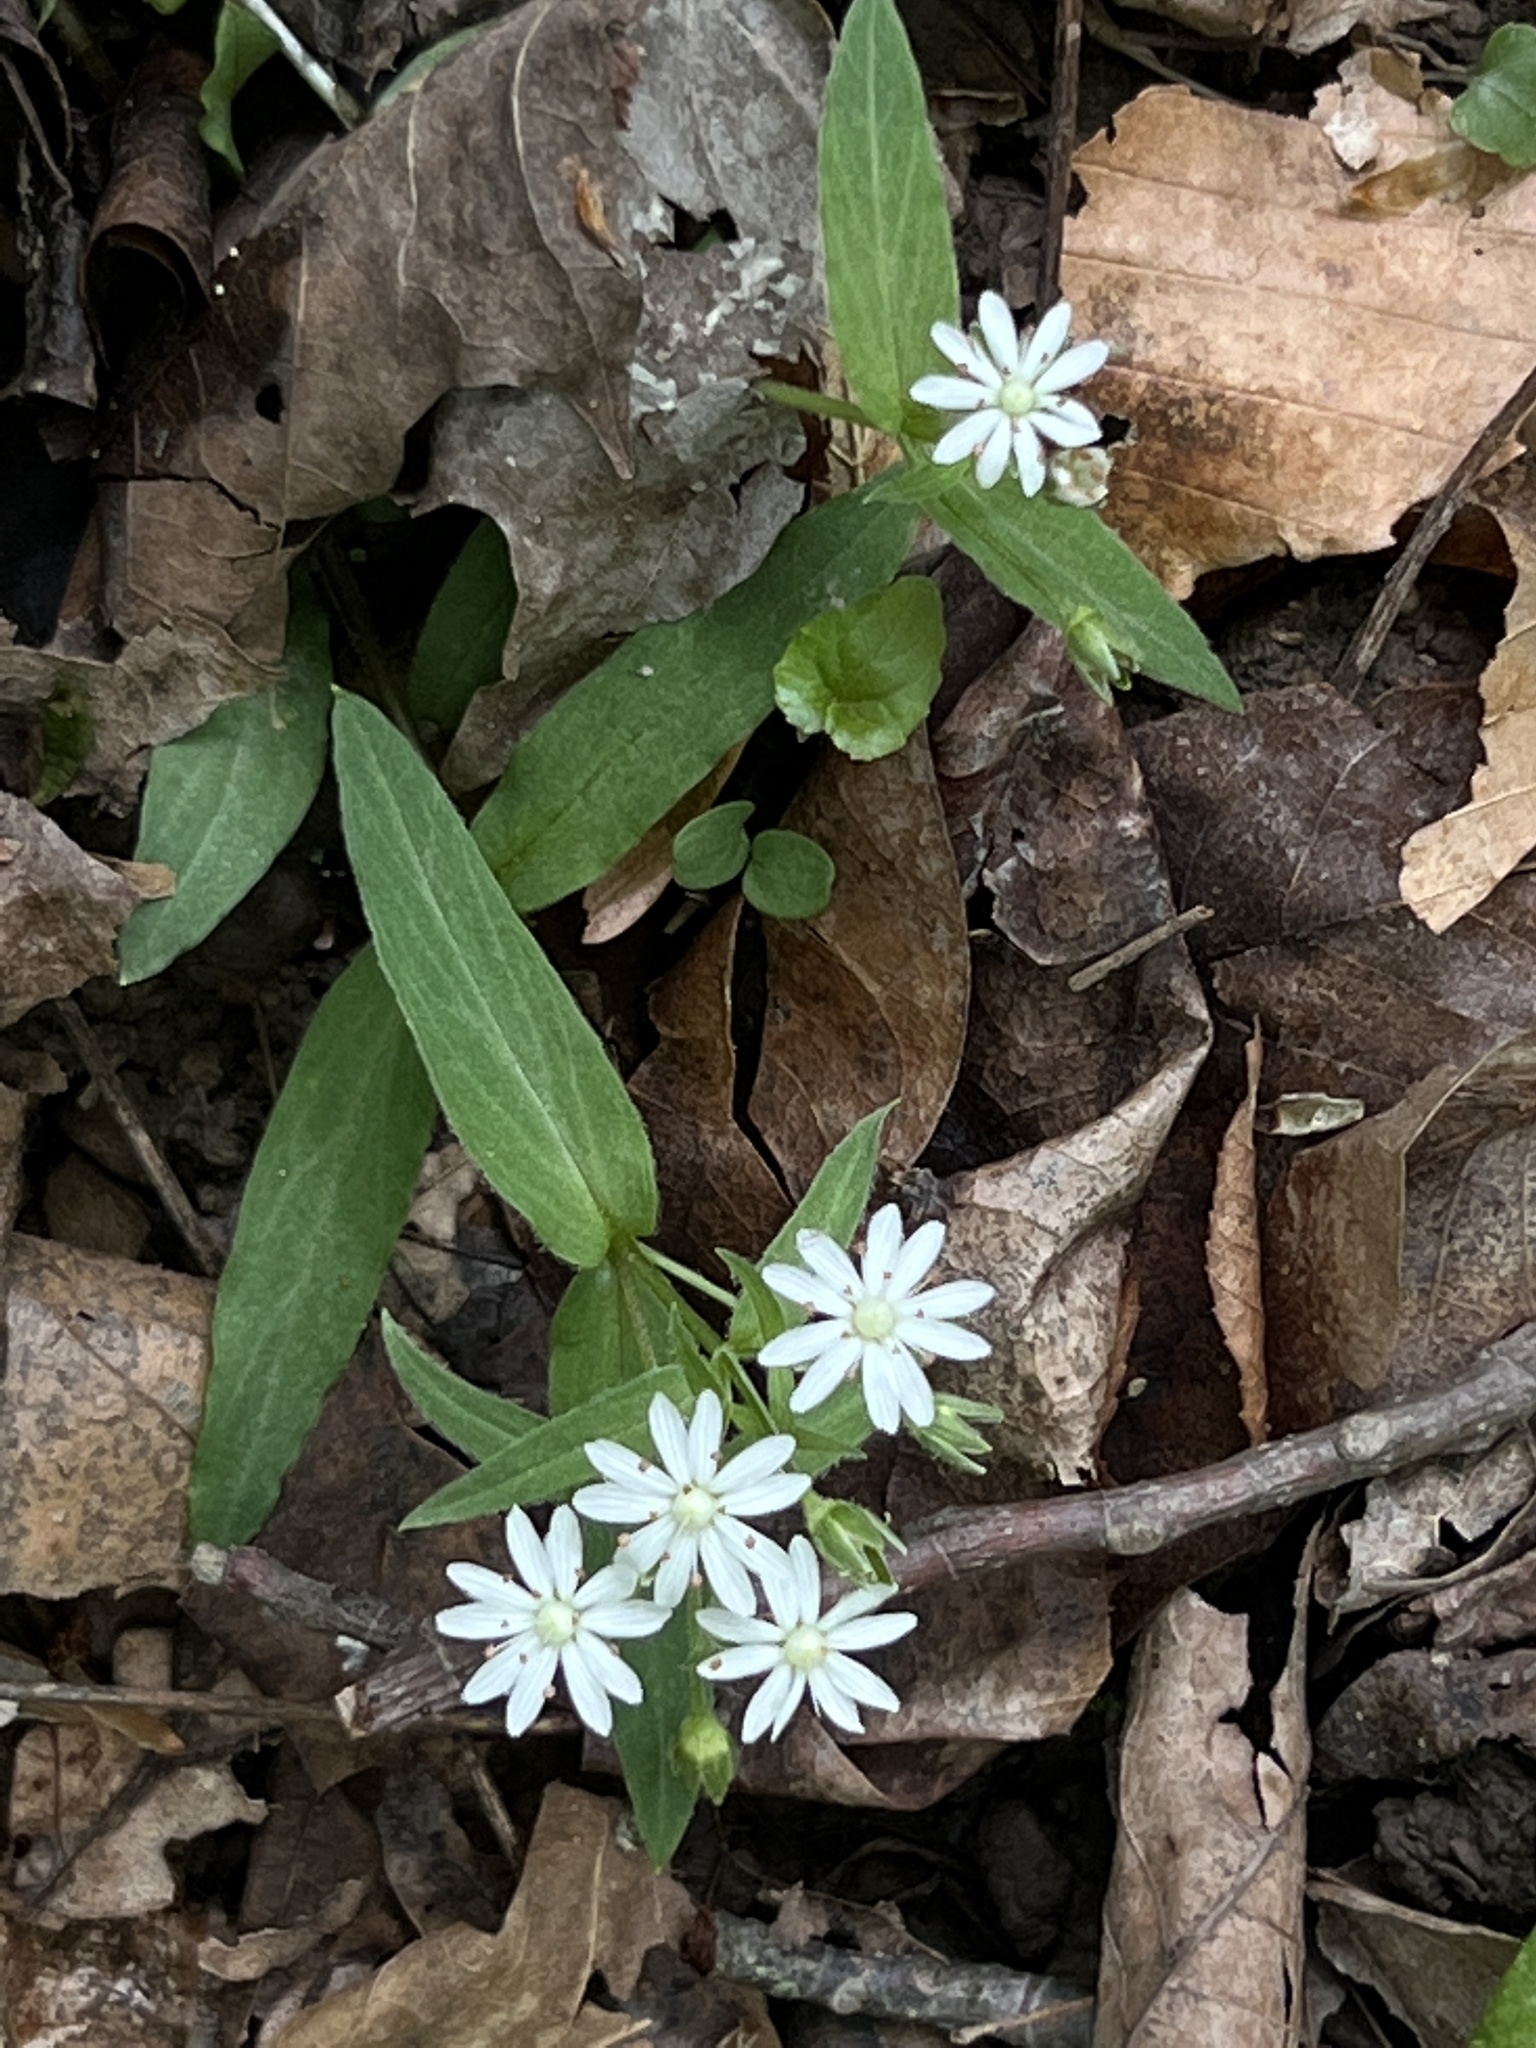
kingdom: Plantae
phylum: Tracheophyta
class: Magnoliopsida
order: Caryophyllales
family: Caryophyllaceae
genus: Stellaria
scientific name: Stellaria pubera
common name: Star chickweed
